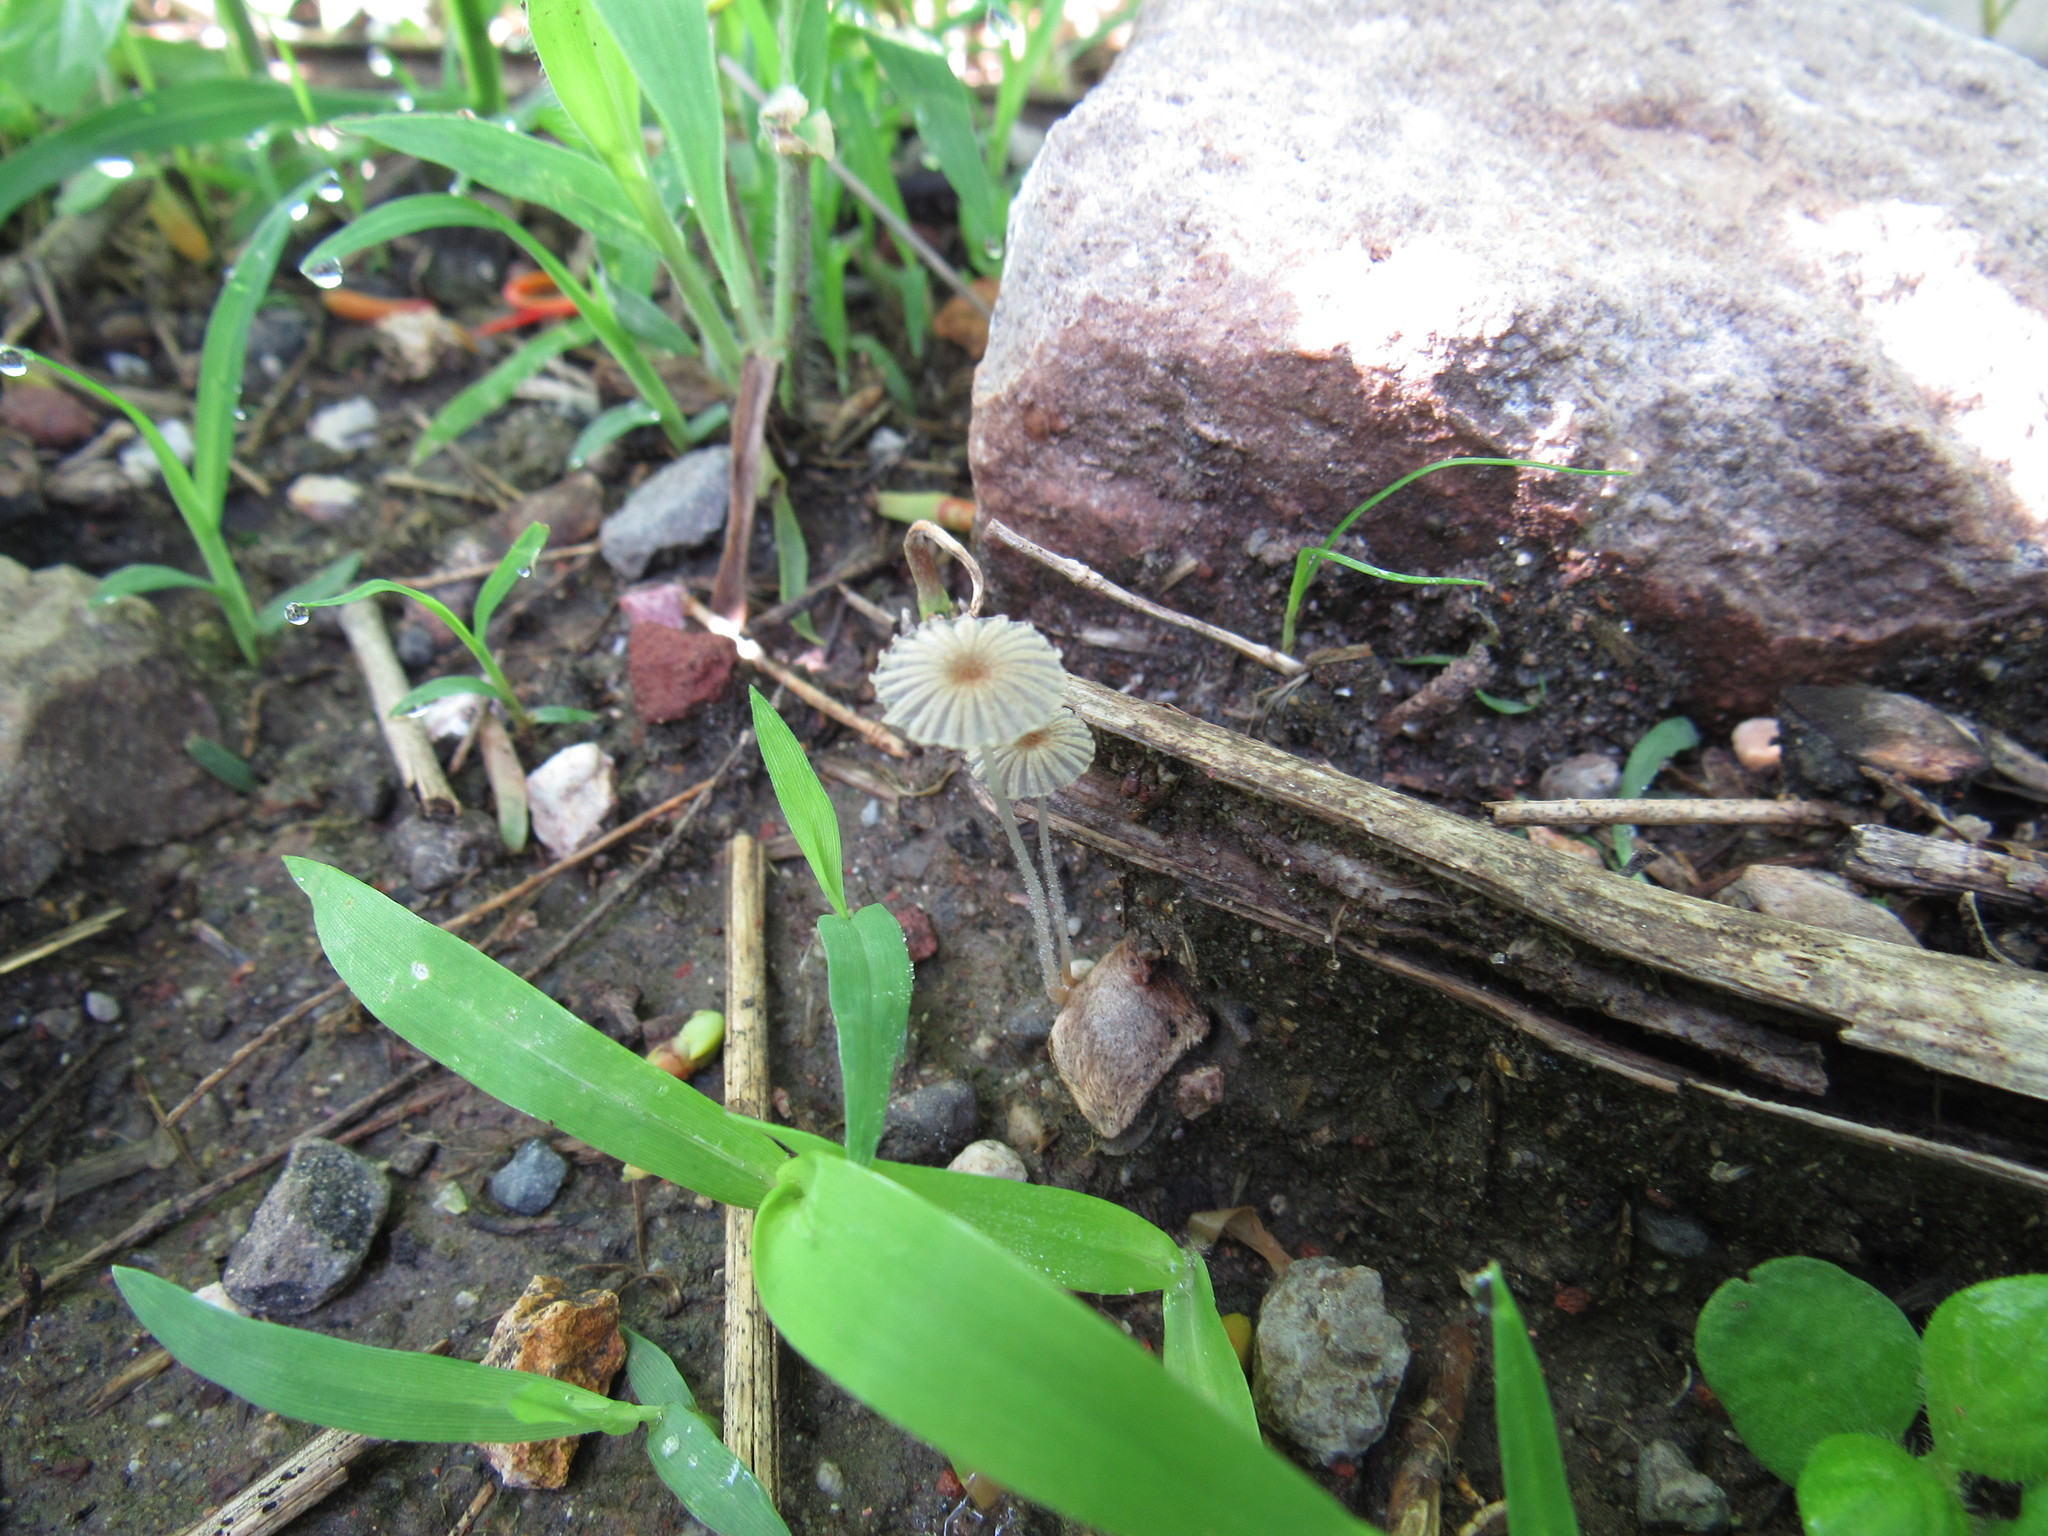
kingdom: Fungi
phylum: Basidiomycota
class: Agaricomycetes
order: Agaricales
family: Psathyrellaceae
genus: Parasola
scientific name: Parasola plicatilis
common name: Pleated inkcap
